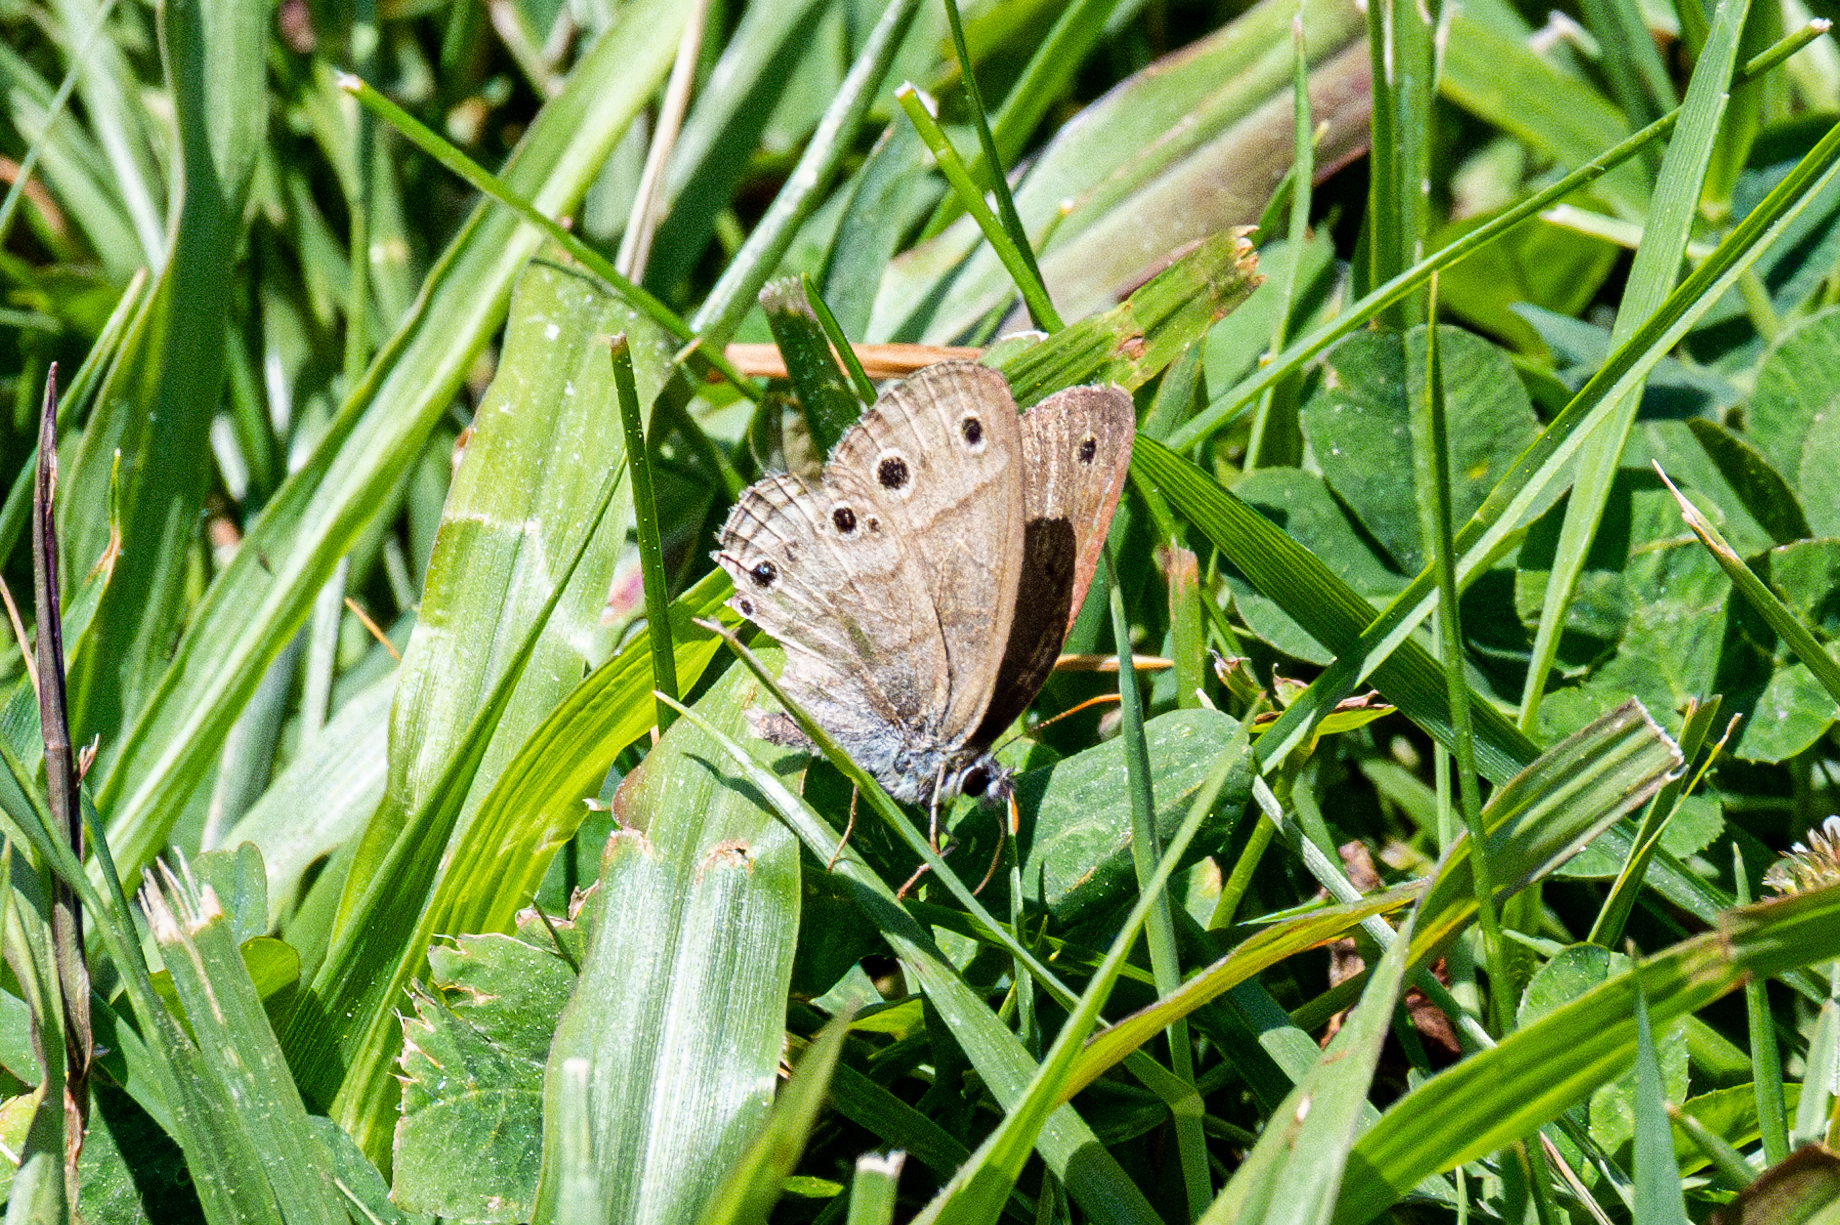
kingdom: Animalia
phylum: Arthropoda
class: Insecta
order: Lepidoptera
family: Nymphalidae
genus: Euptychia
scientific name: Euptychia cymela
